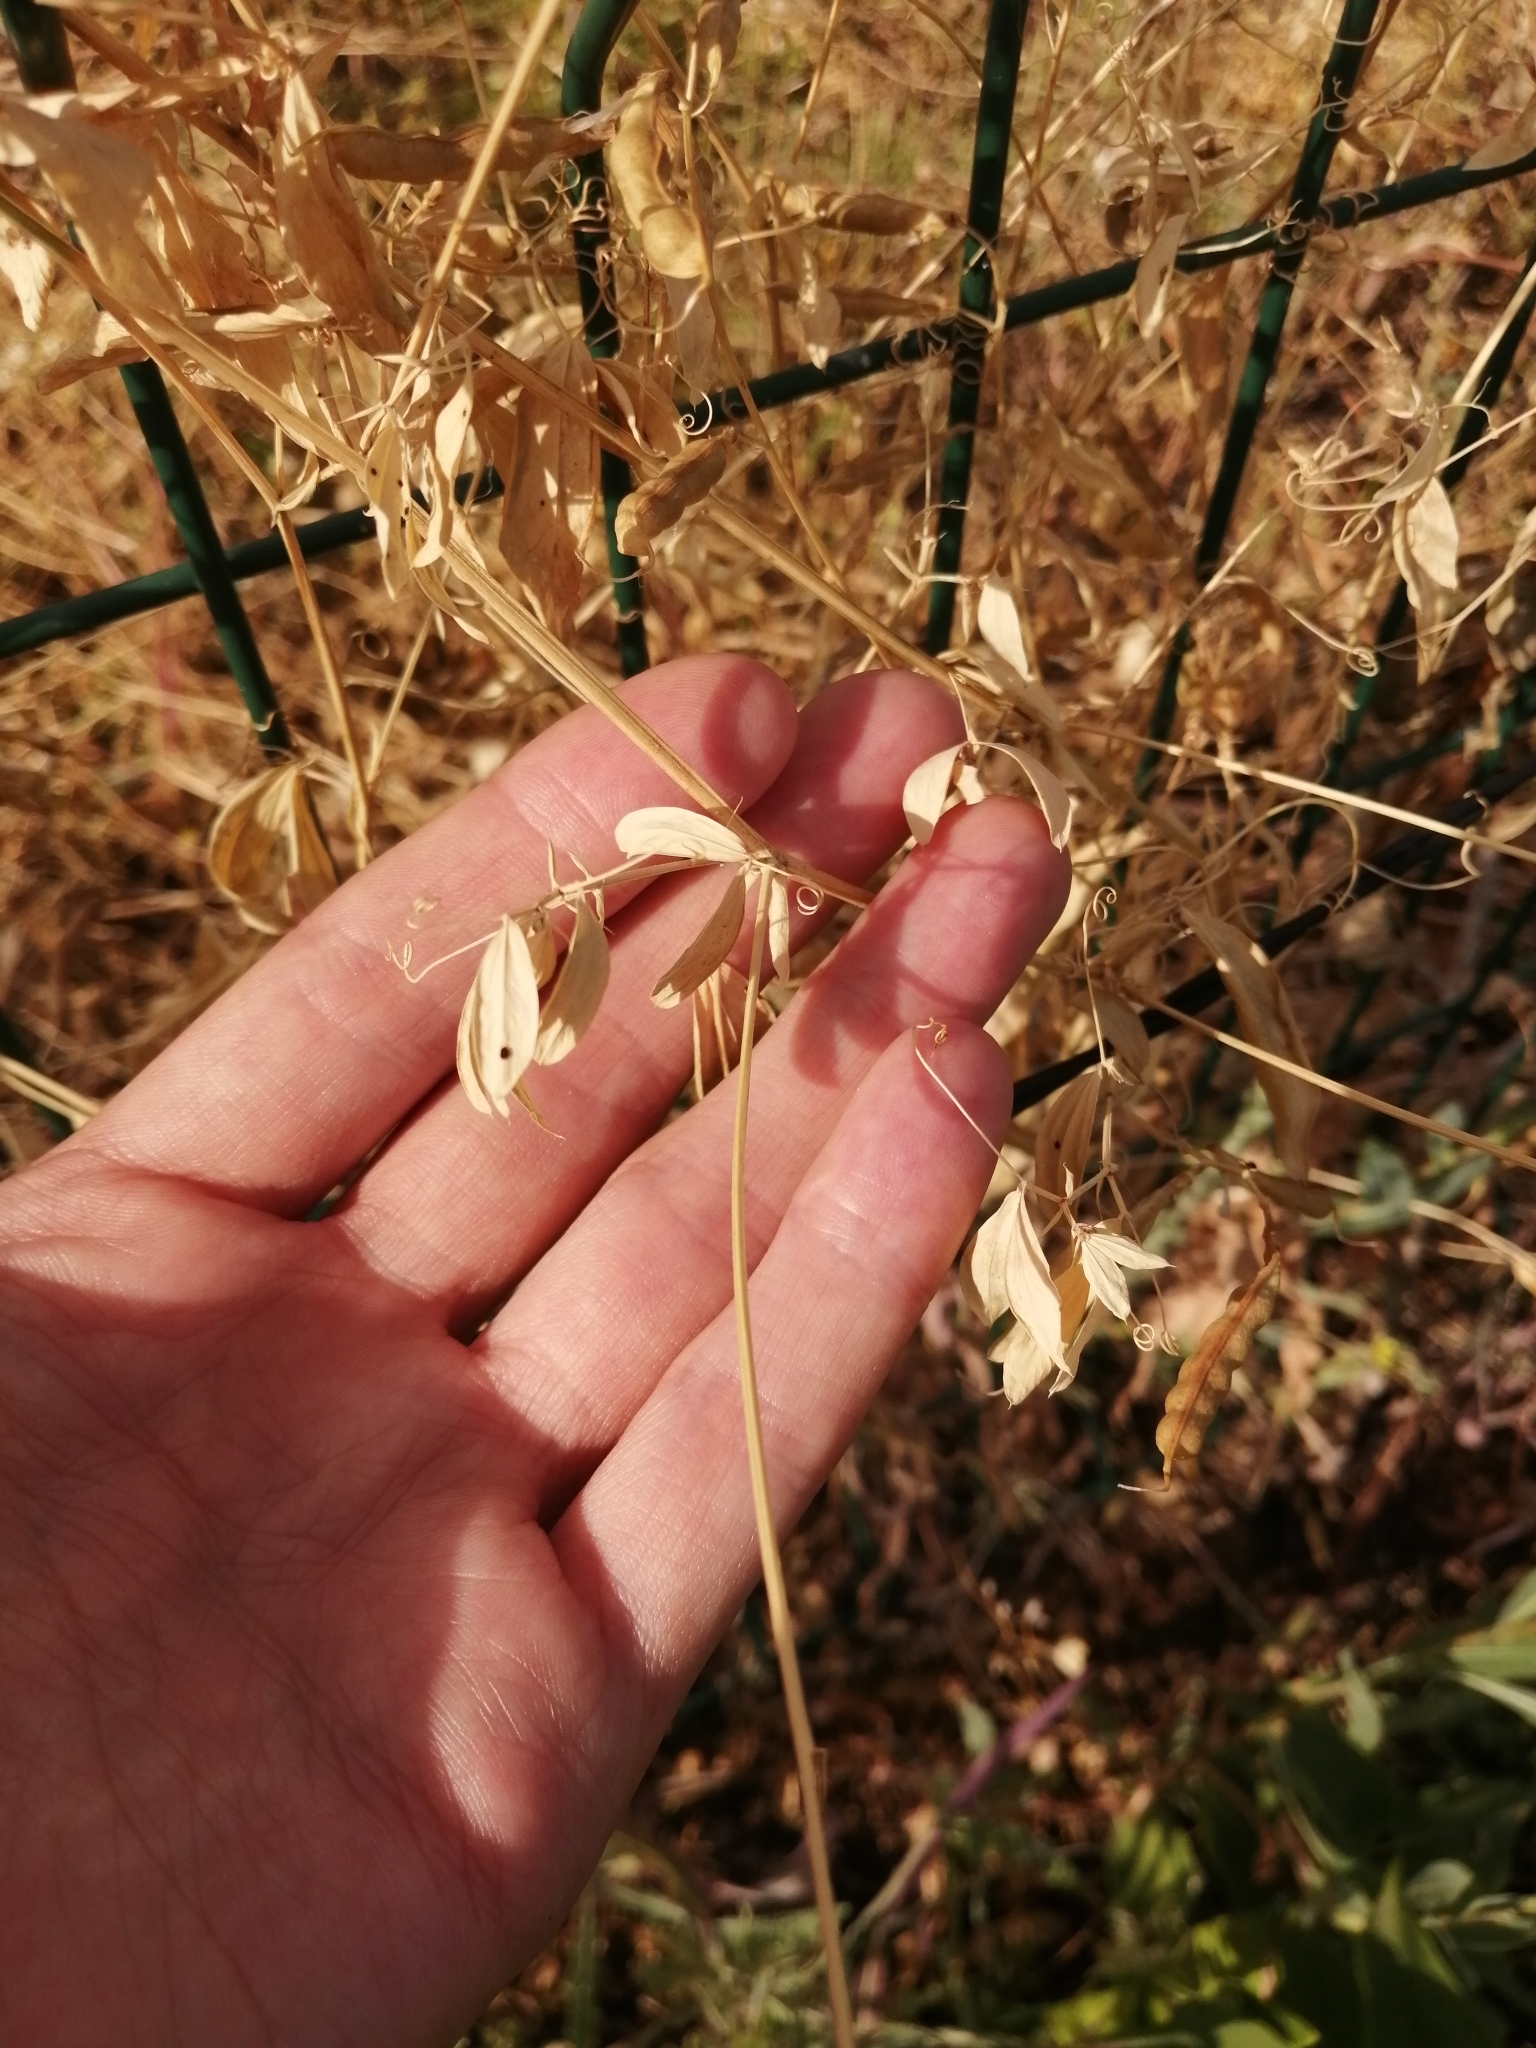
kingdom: Plantae
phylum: Tracheophyta
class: Magnoliopsida
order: Fabales
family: Fabaceae
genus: Lathyrus
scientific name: Lathyrus tuberosus
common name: Tuberous pea
